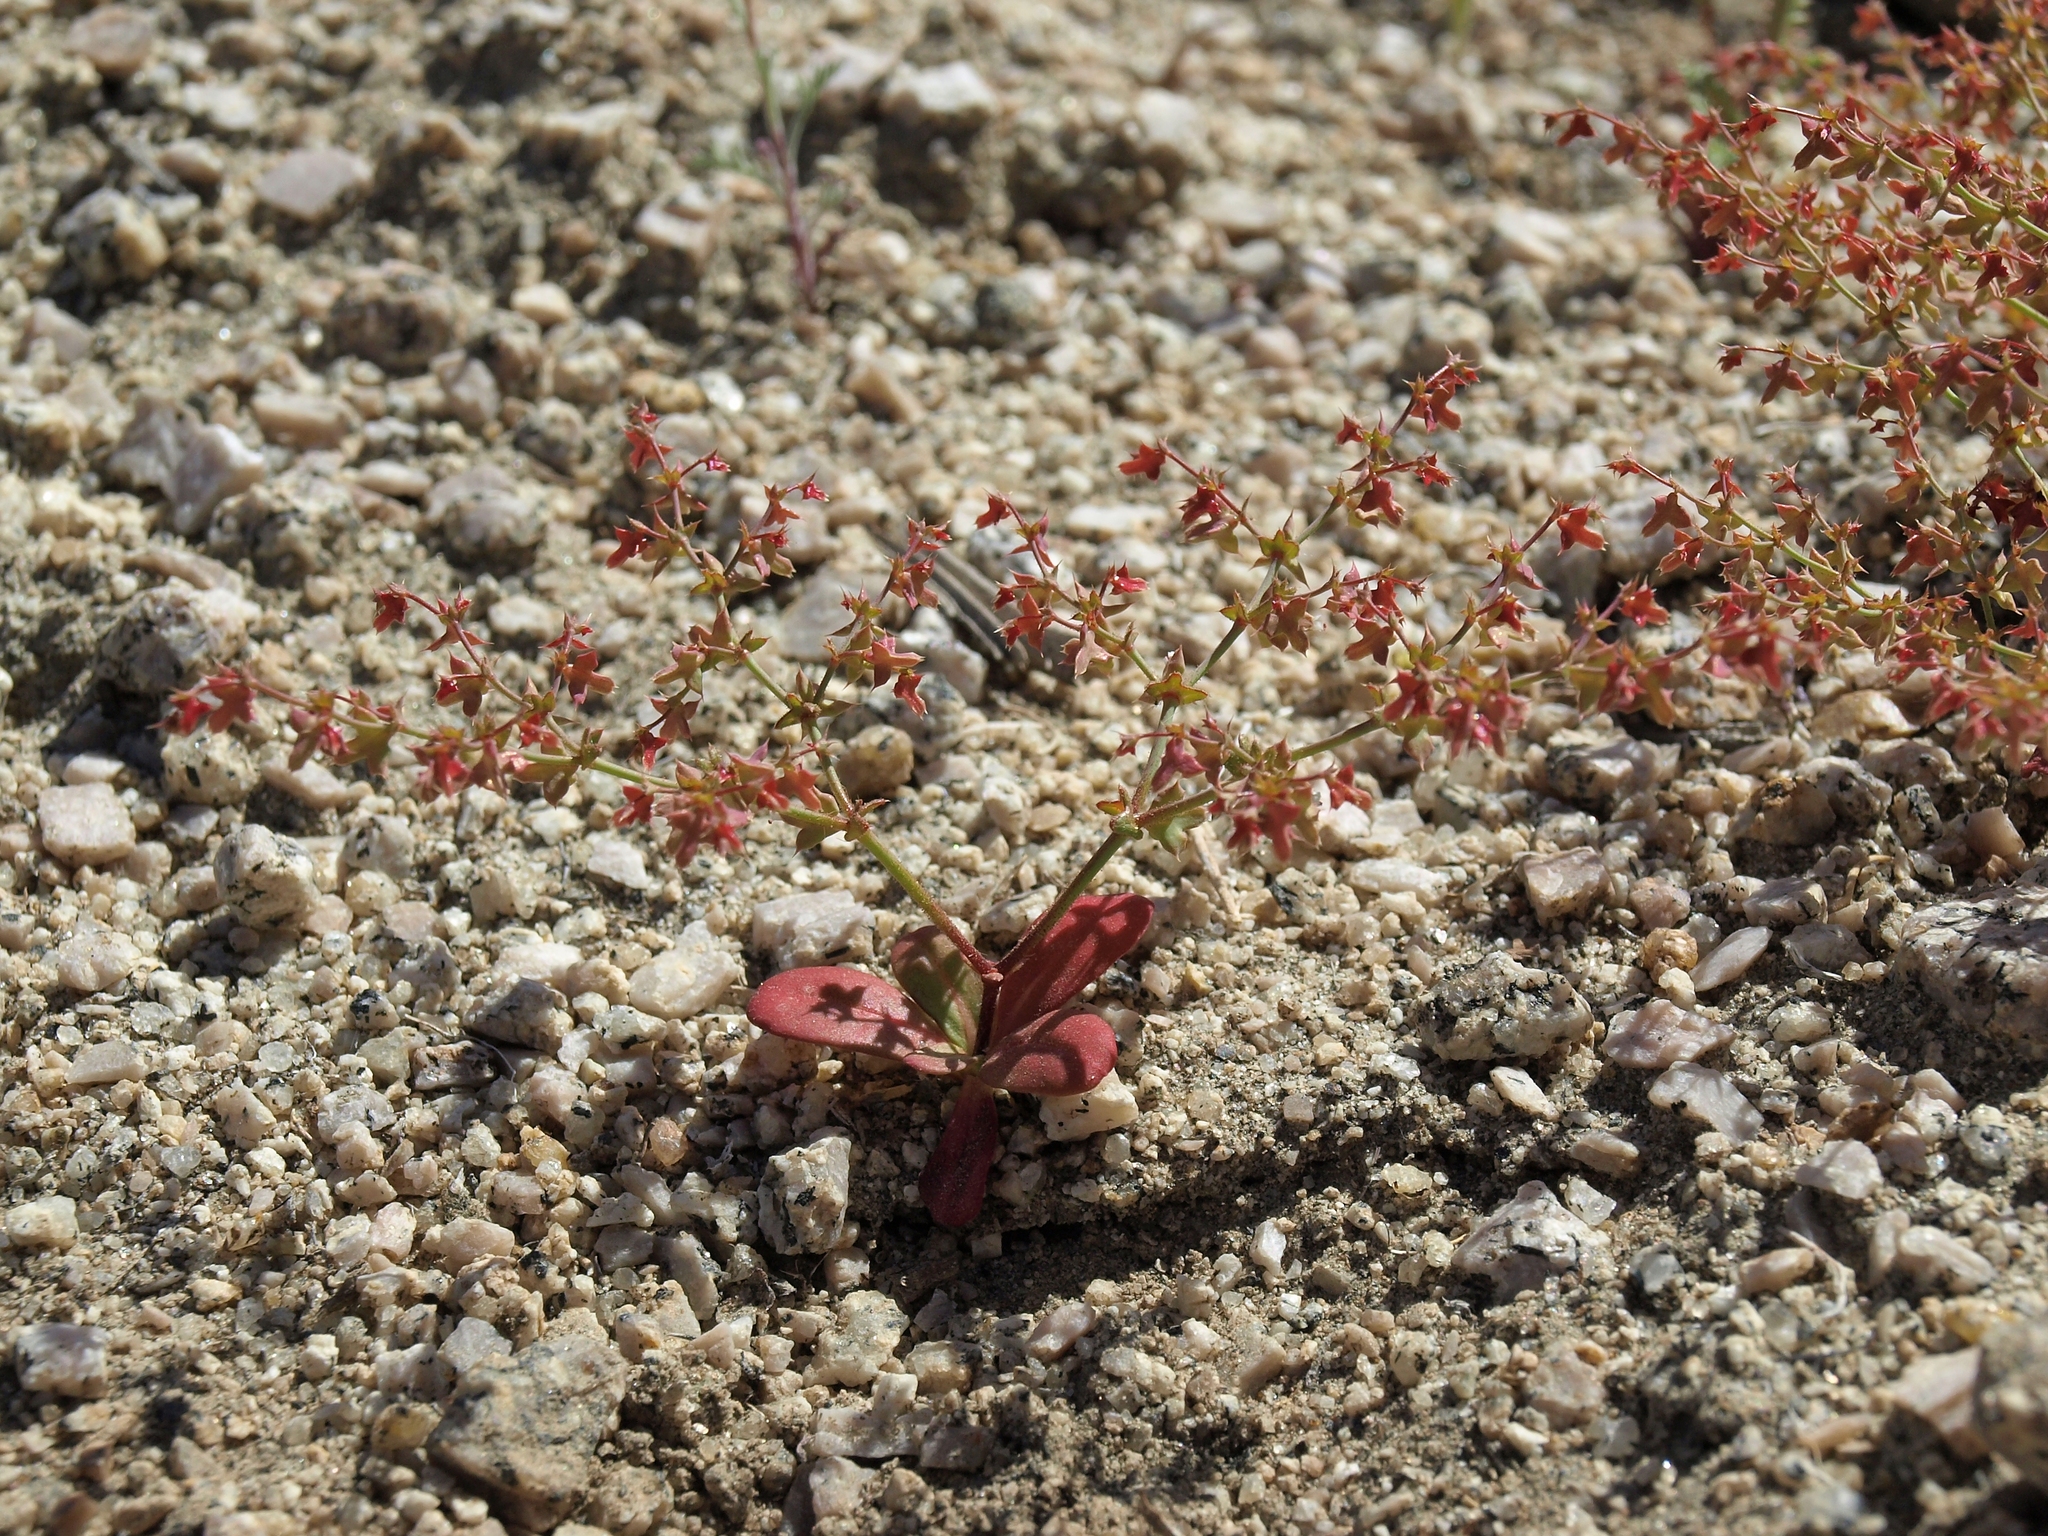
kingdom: Plantae
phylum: Tracheophyta
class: Magnoliopsida
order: Caryophyllales
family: Polygonaceae
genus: Centrostegia
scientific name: Centrostegia thurberi
